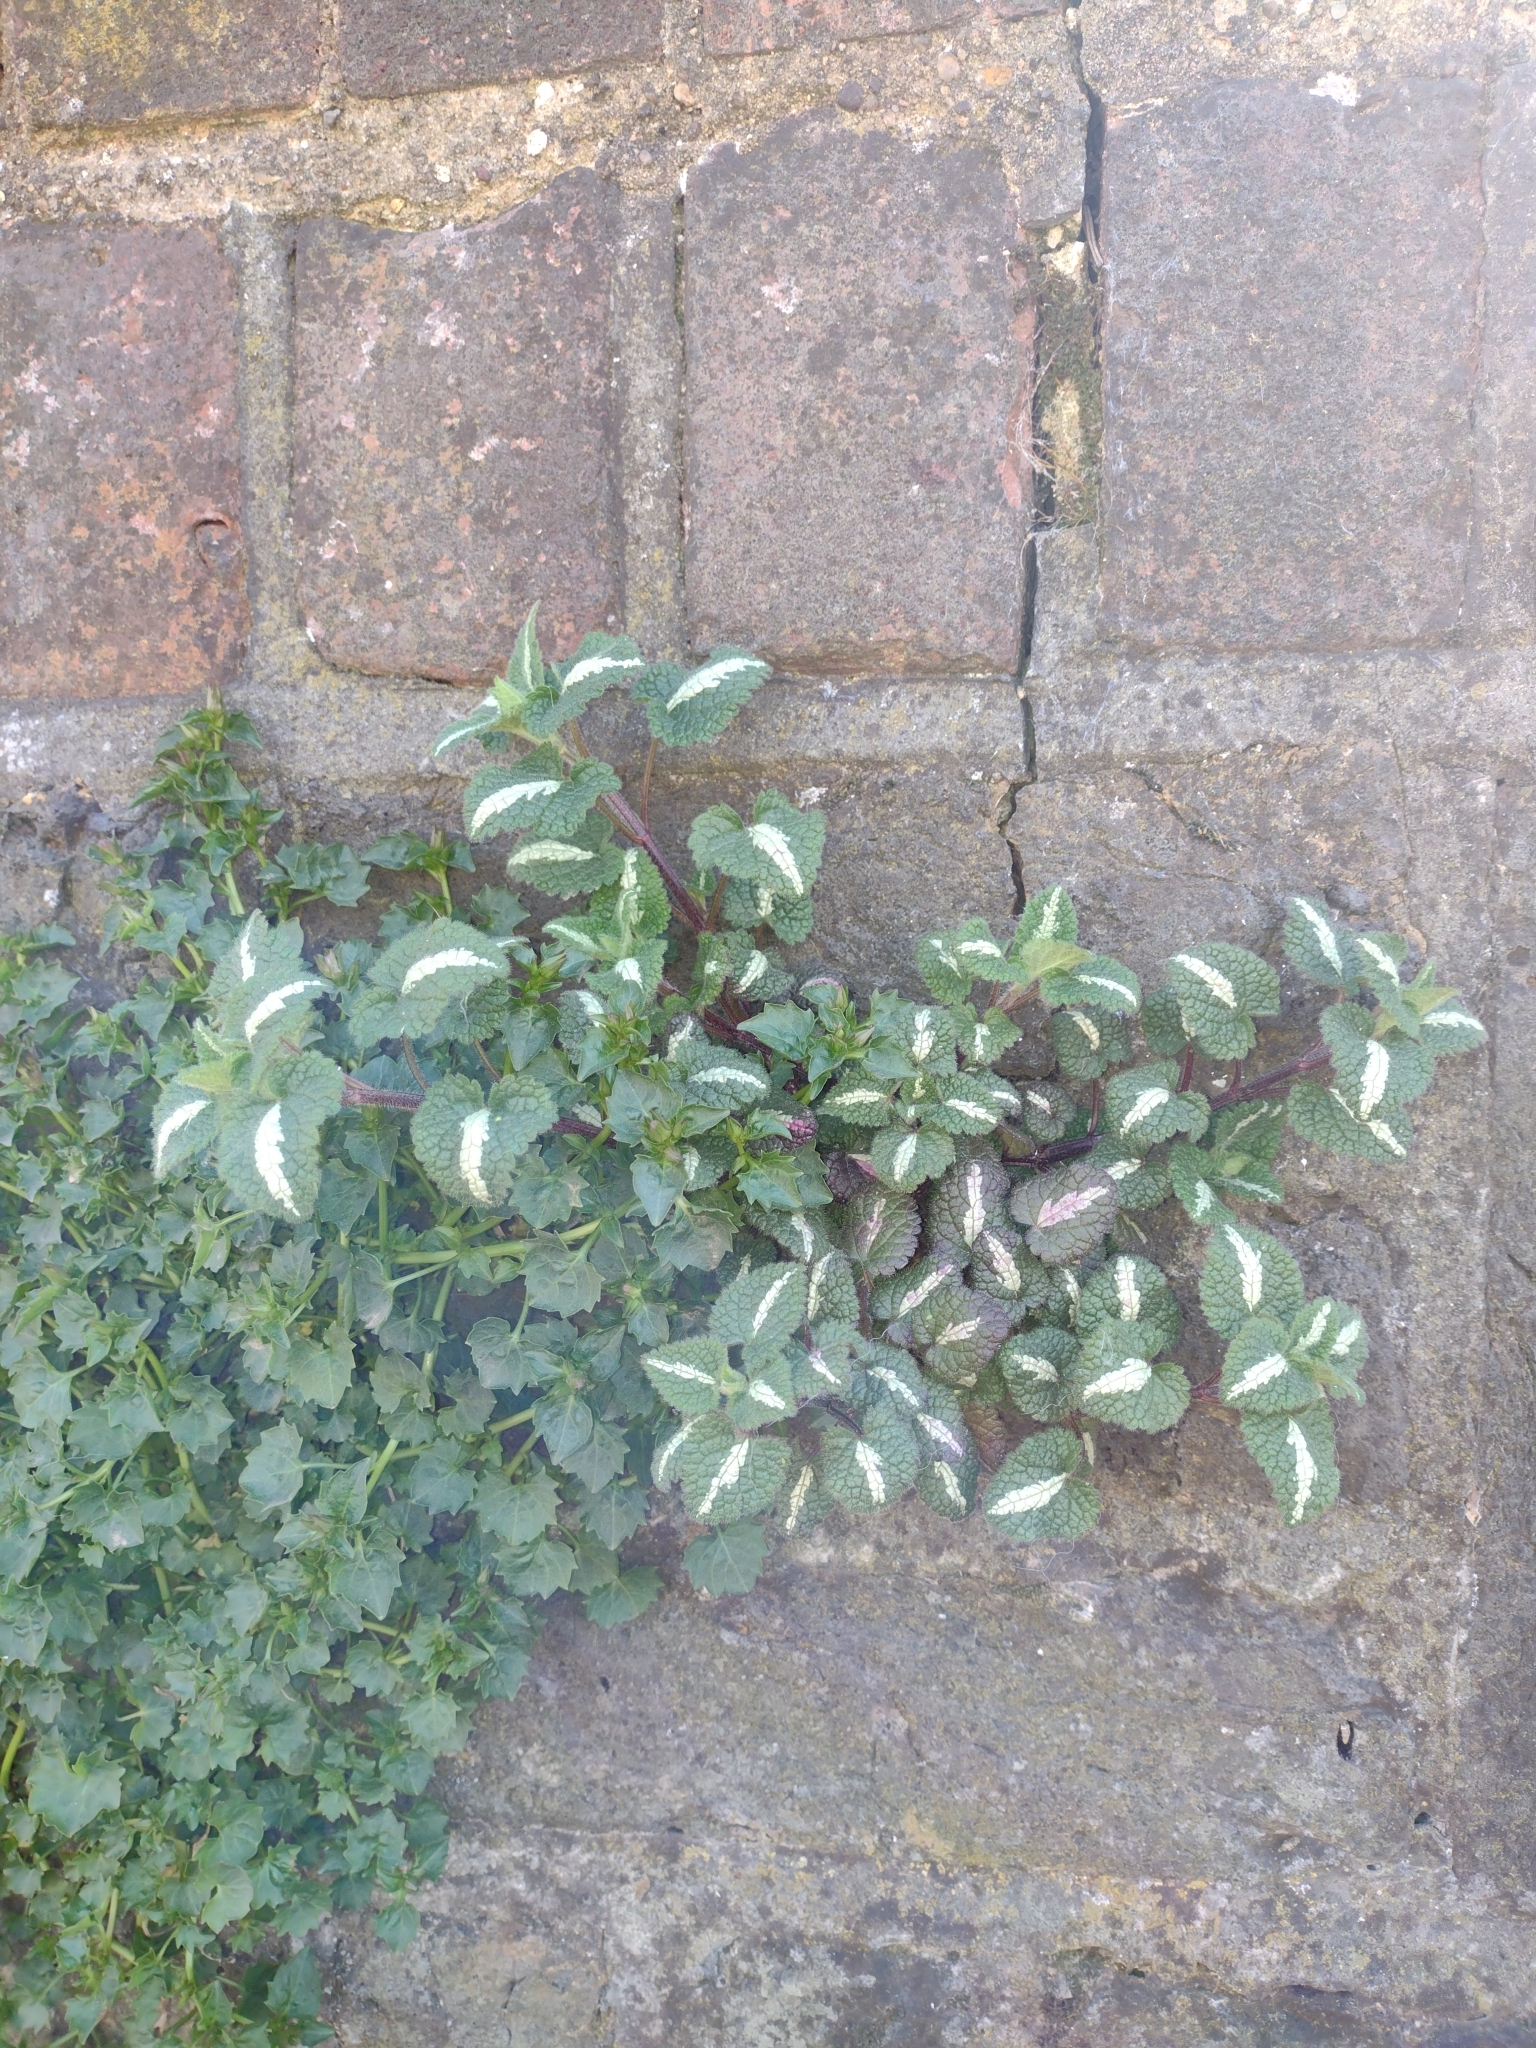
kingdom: Plantae
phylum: Tracheophyta
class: Magnoliopsida
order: Lamiales
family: Lamiaceae
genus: Lamium
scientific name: Lamium maculatum
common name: Spotted dead-nettle
